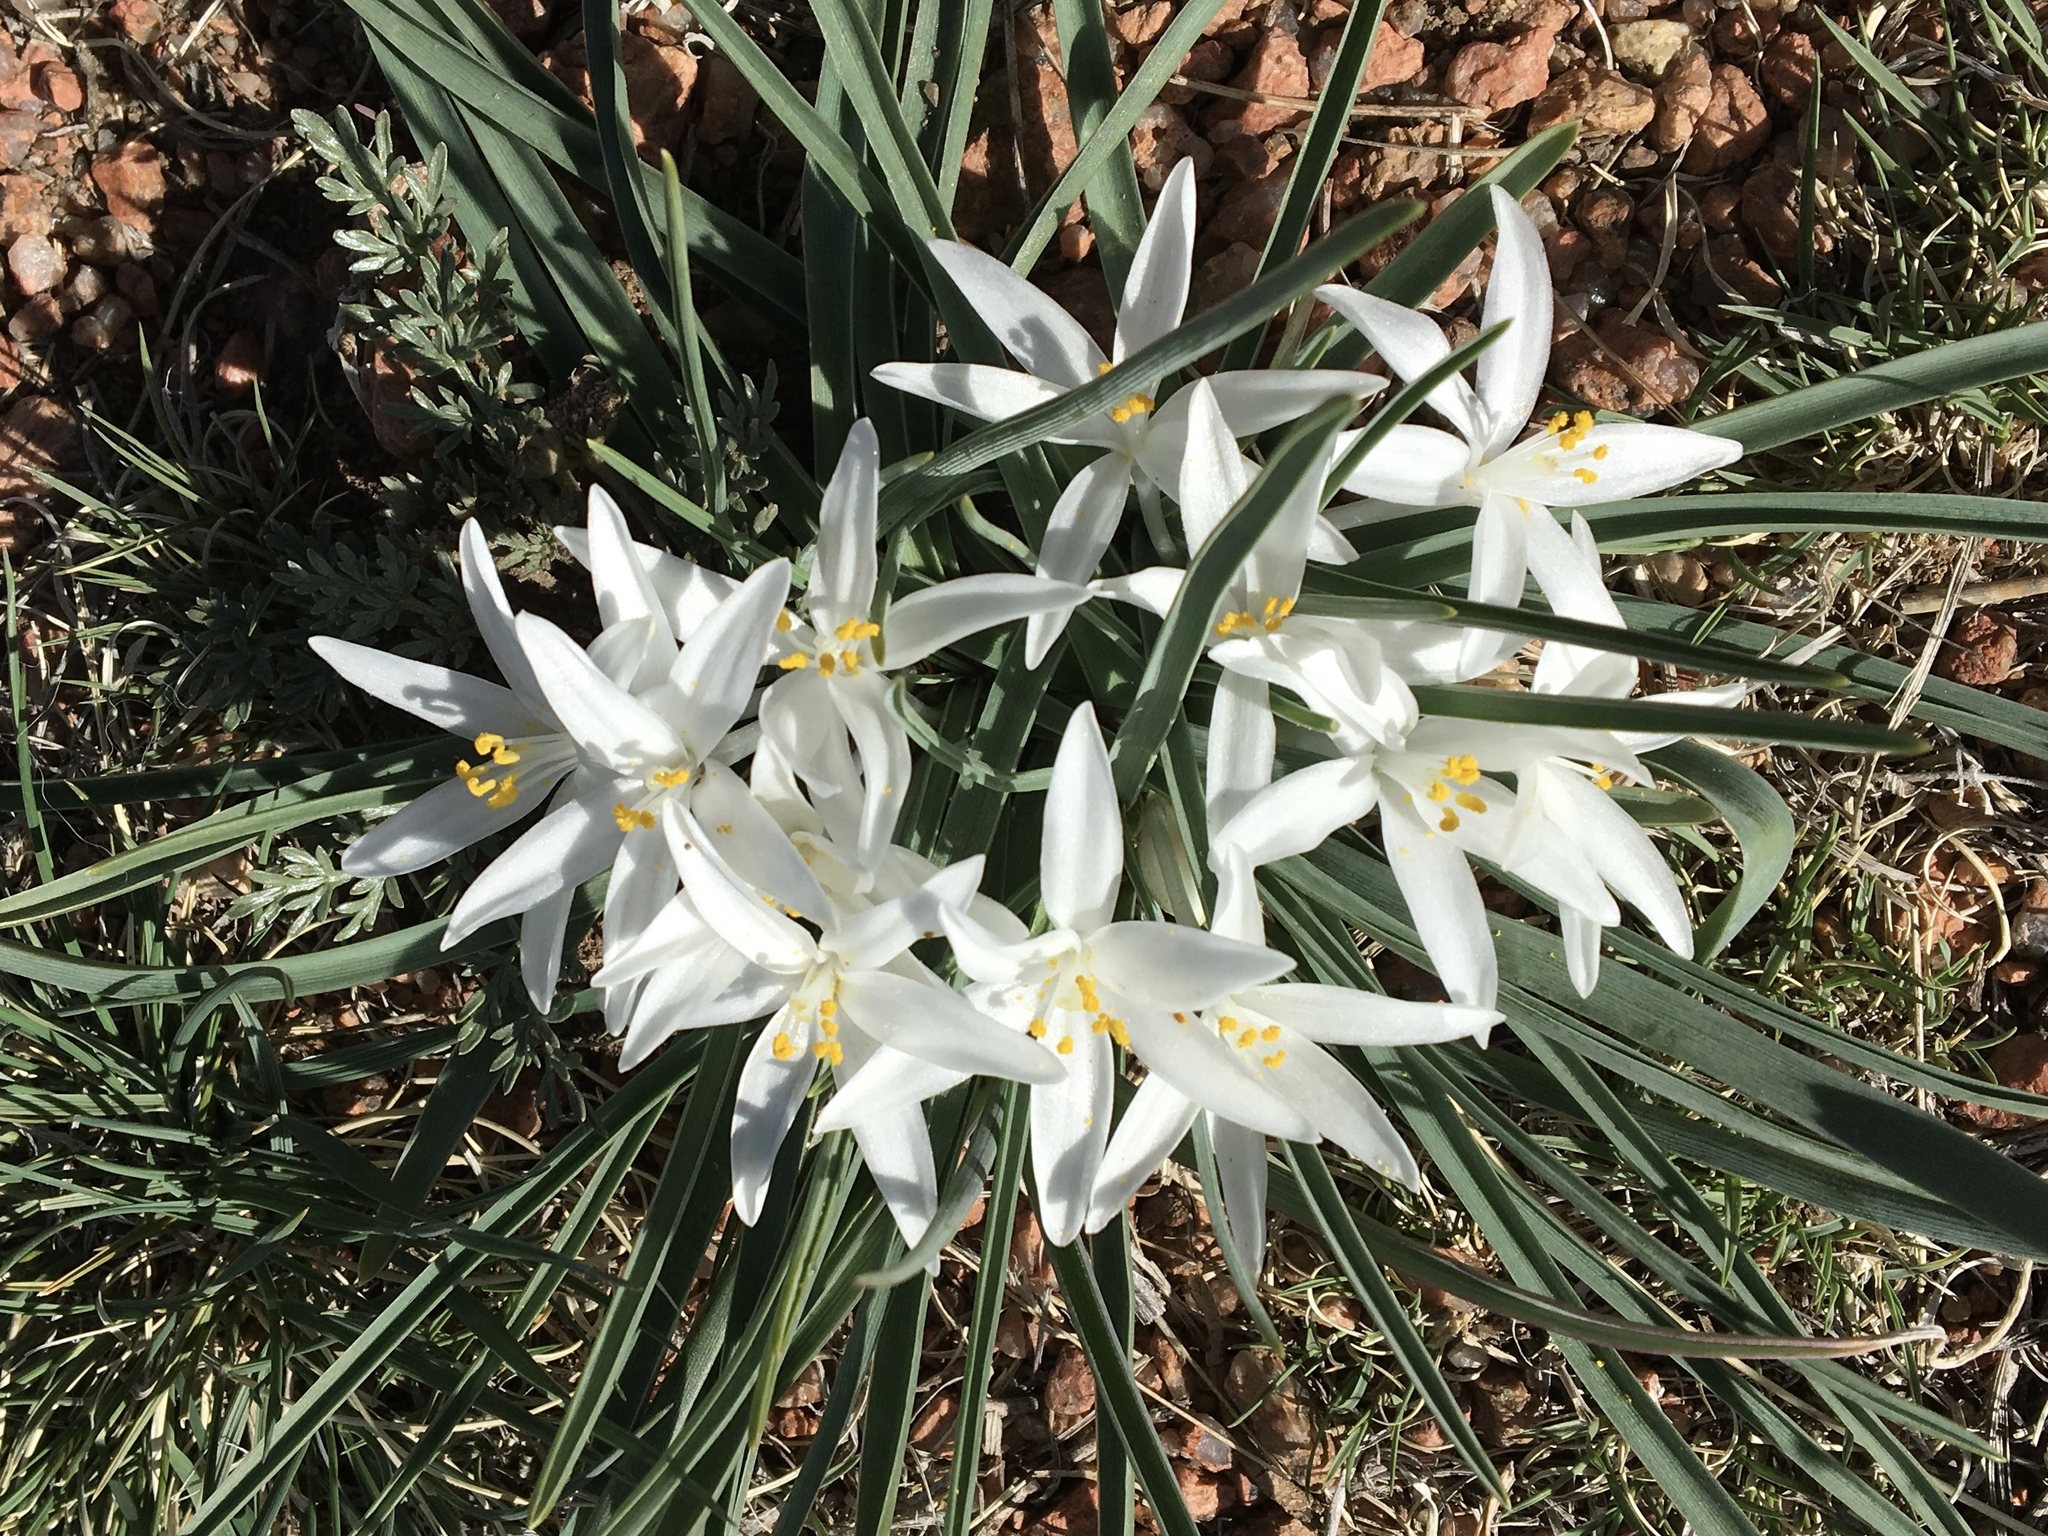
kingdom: Plantae
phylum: Tracheophyta
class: Liliopsida
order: Asparagales
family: Asparagaceae
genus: Leucocrinum
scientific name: Leucocrinum montanum
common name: Mountain-lily
